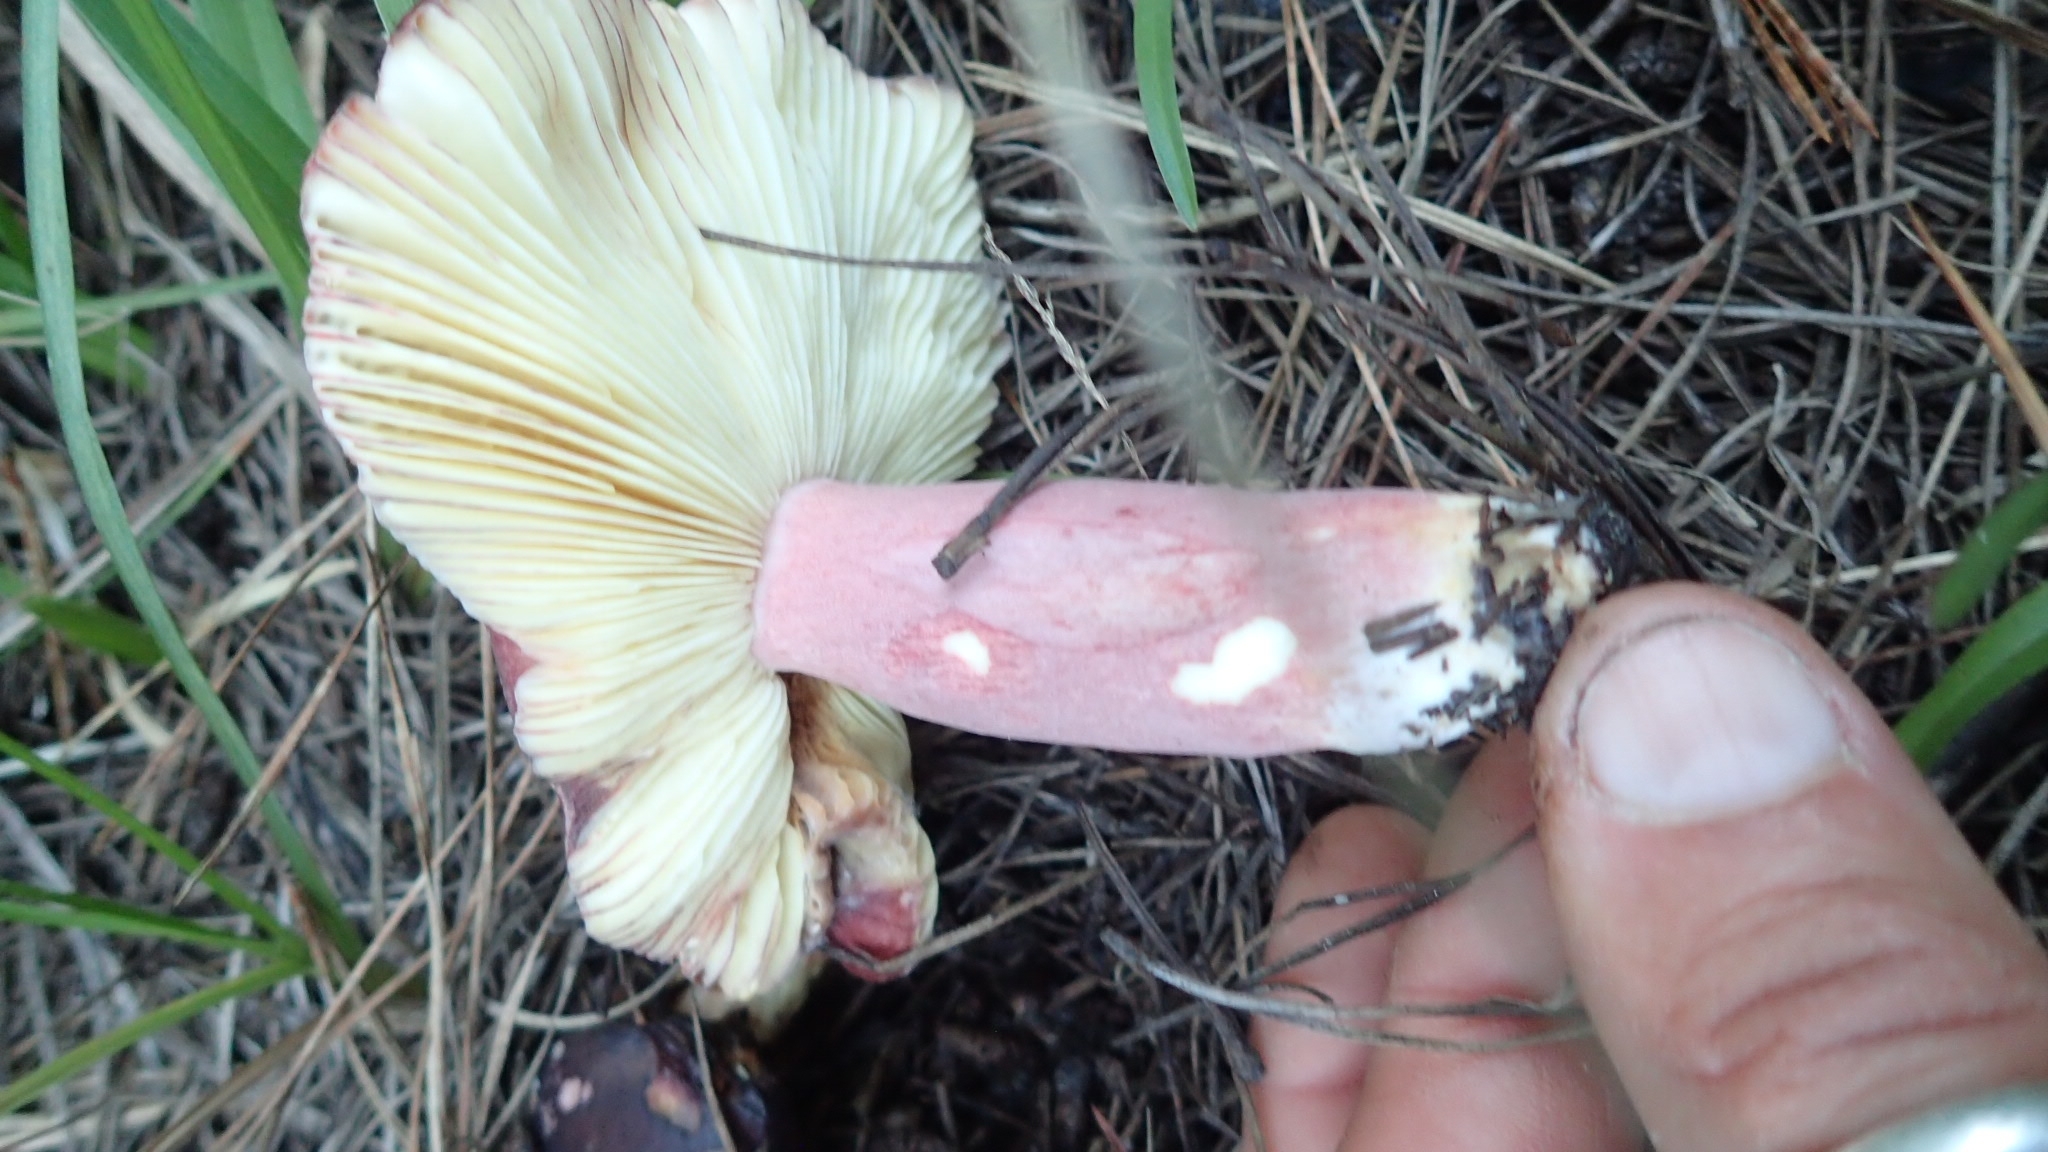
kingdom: Fungi
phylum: Basidiomycota
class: Agaricomycetes
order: Russulales
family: Russulaceae
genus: Russula
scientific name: Russula xerampelina
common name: Crab brittlegill
